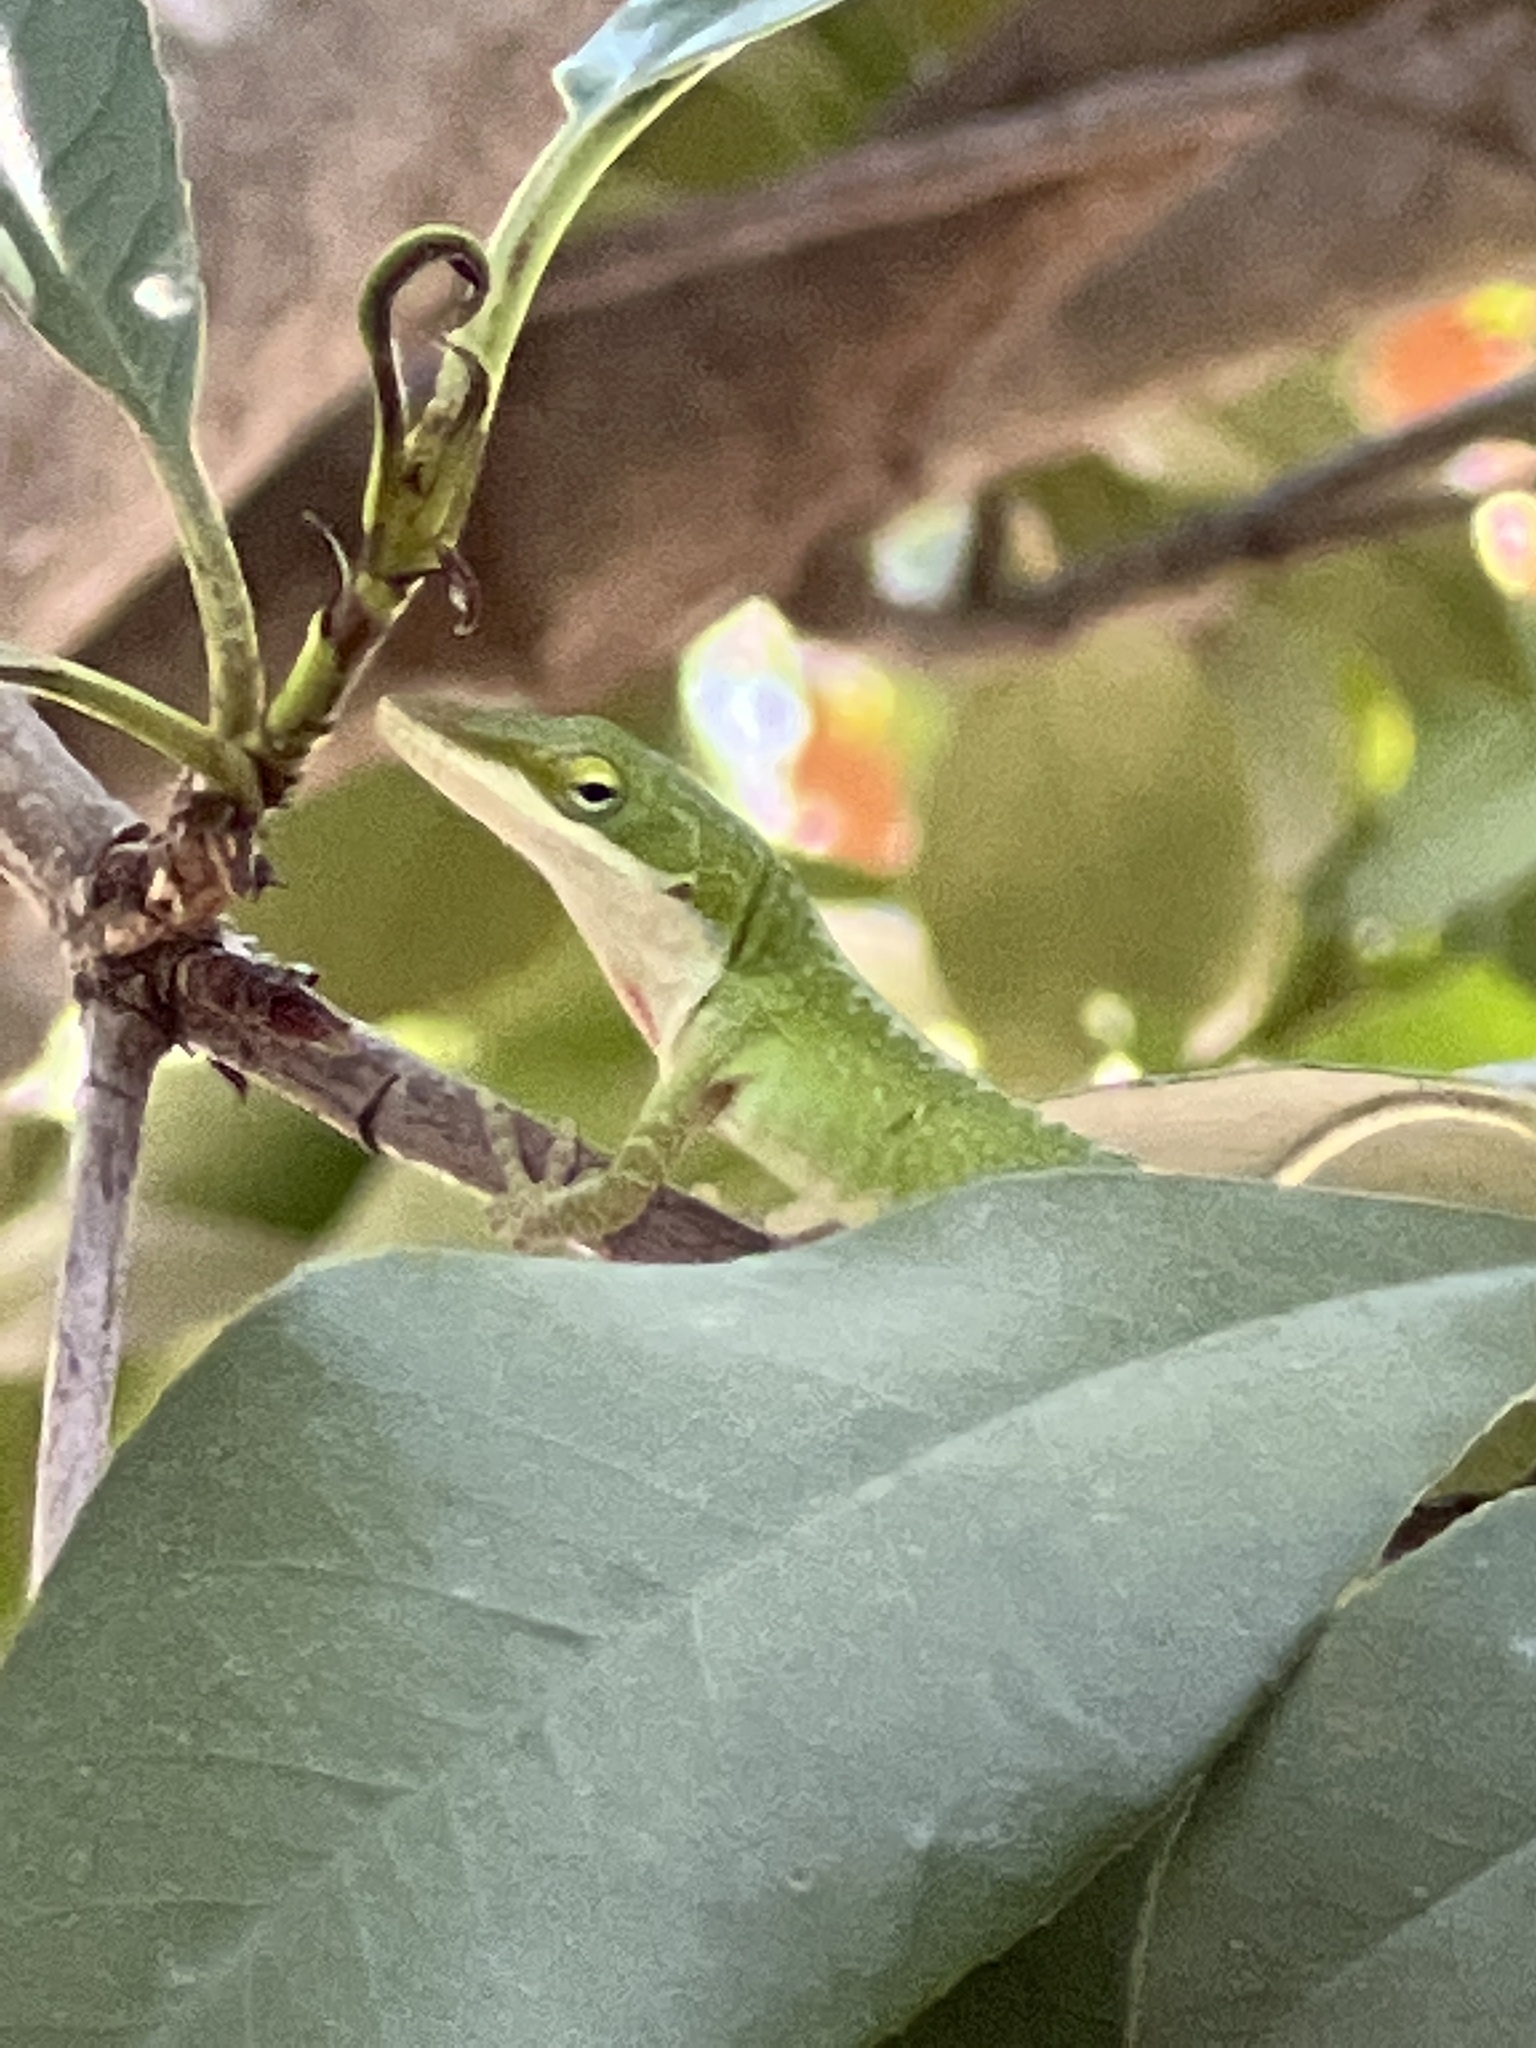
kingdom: Animalia
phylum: Chordata
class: Squamata
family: Dactyloidae
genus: Anolis
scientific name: Anolis carolinensis
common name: Green anole
